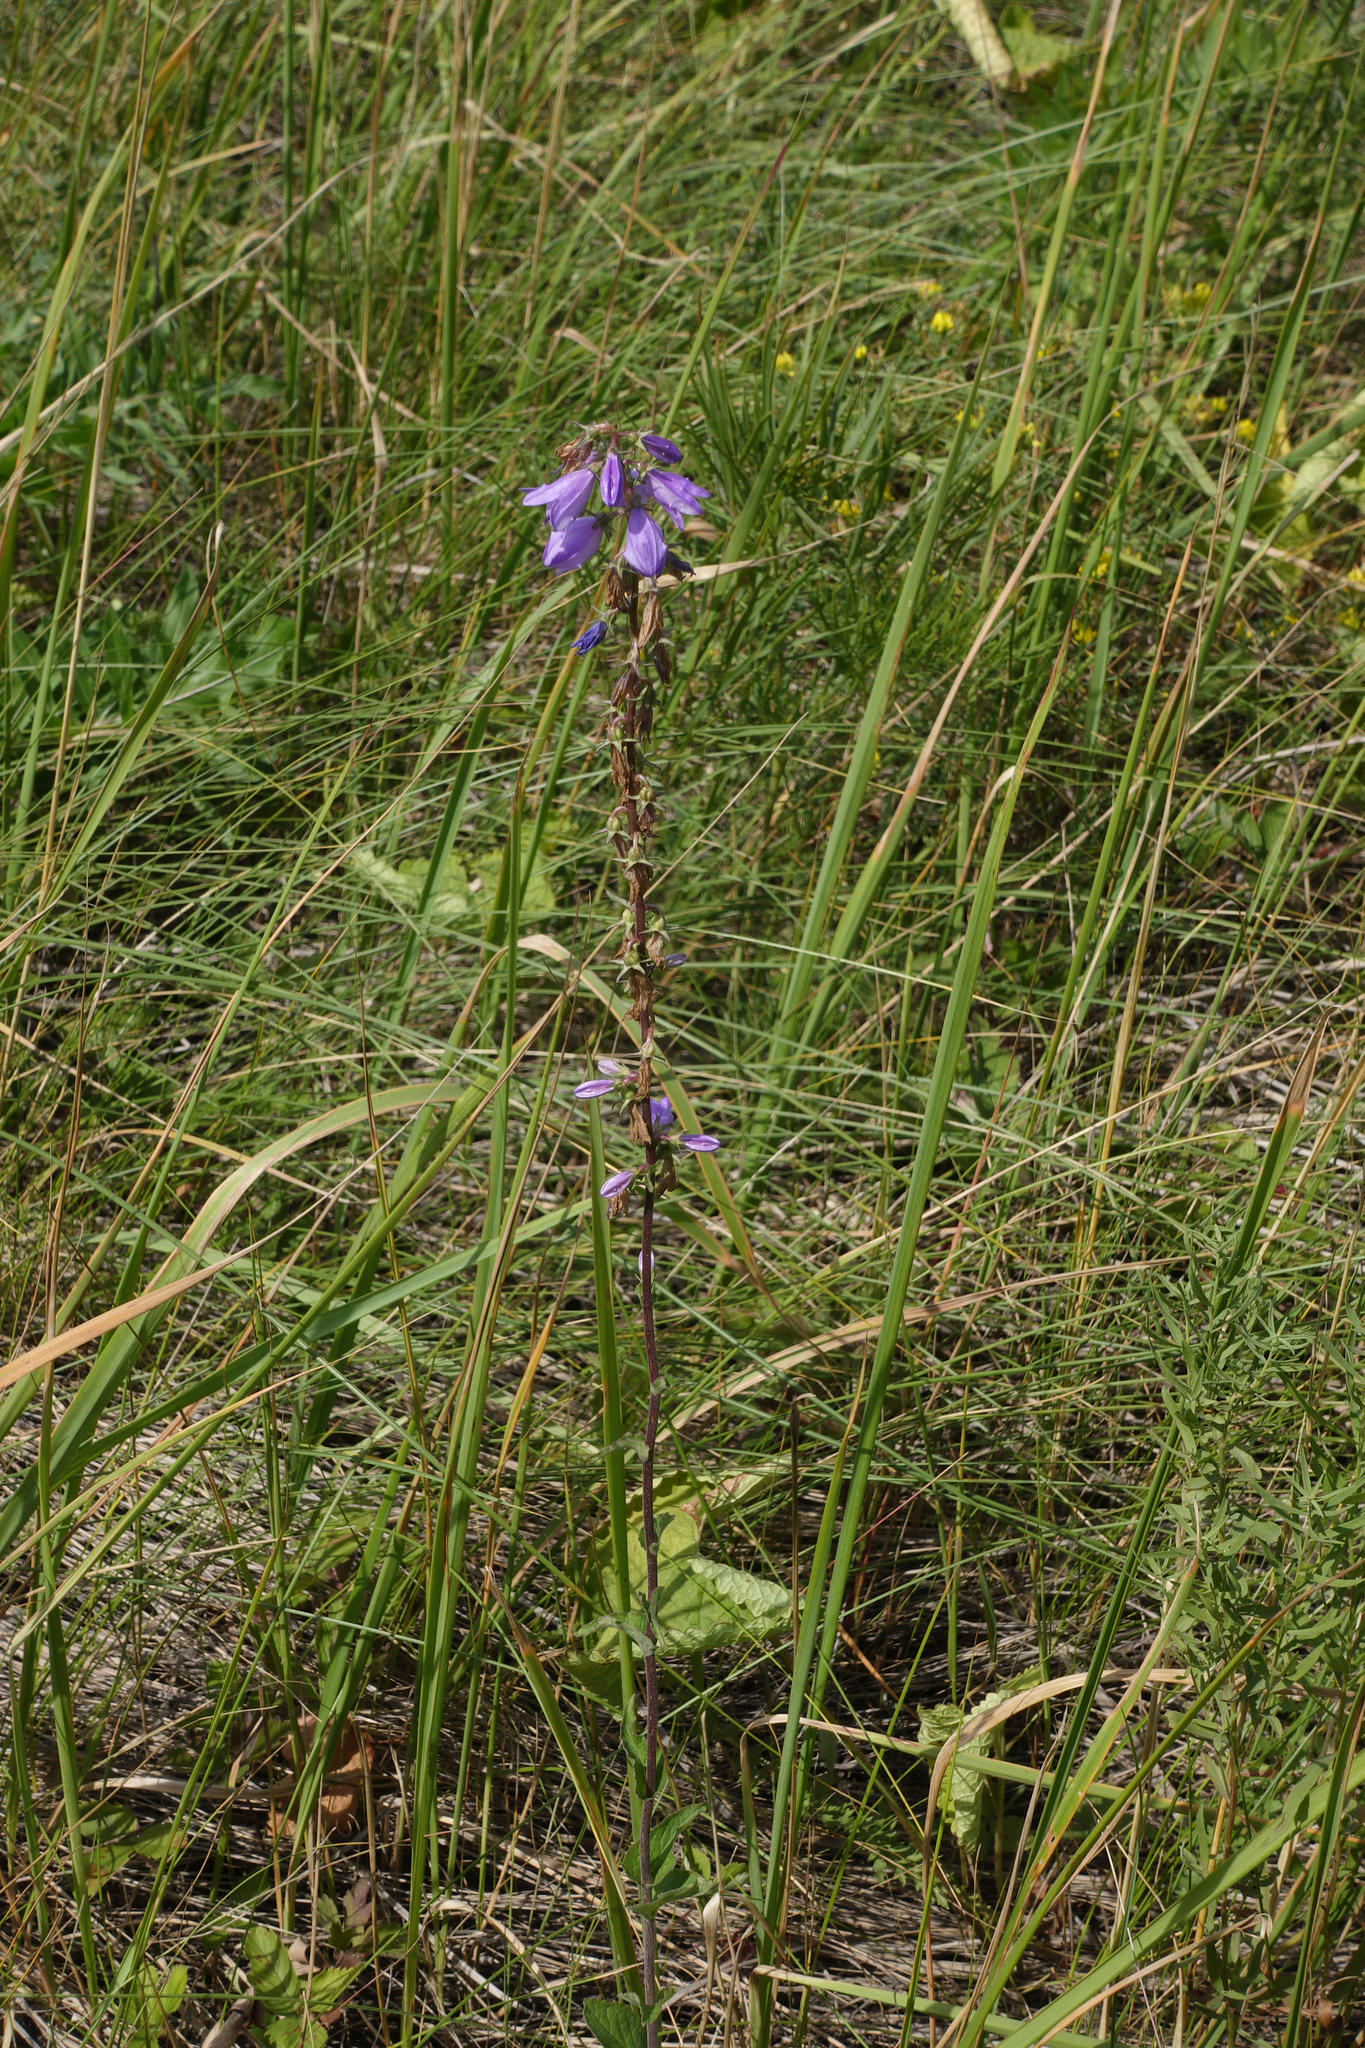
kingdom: Plantae
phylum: Tracheophyta
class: Magnoliopsida
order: Asterales
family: Campanulaceae
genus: Campanula
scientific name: Campanula sibirica
